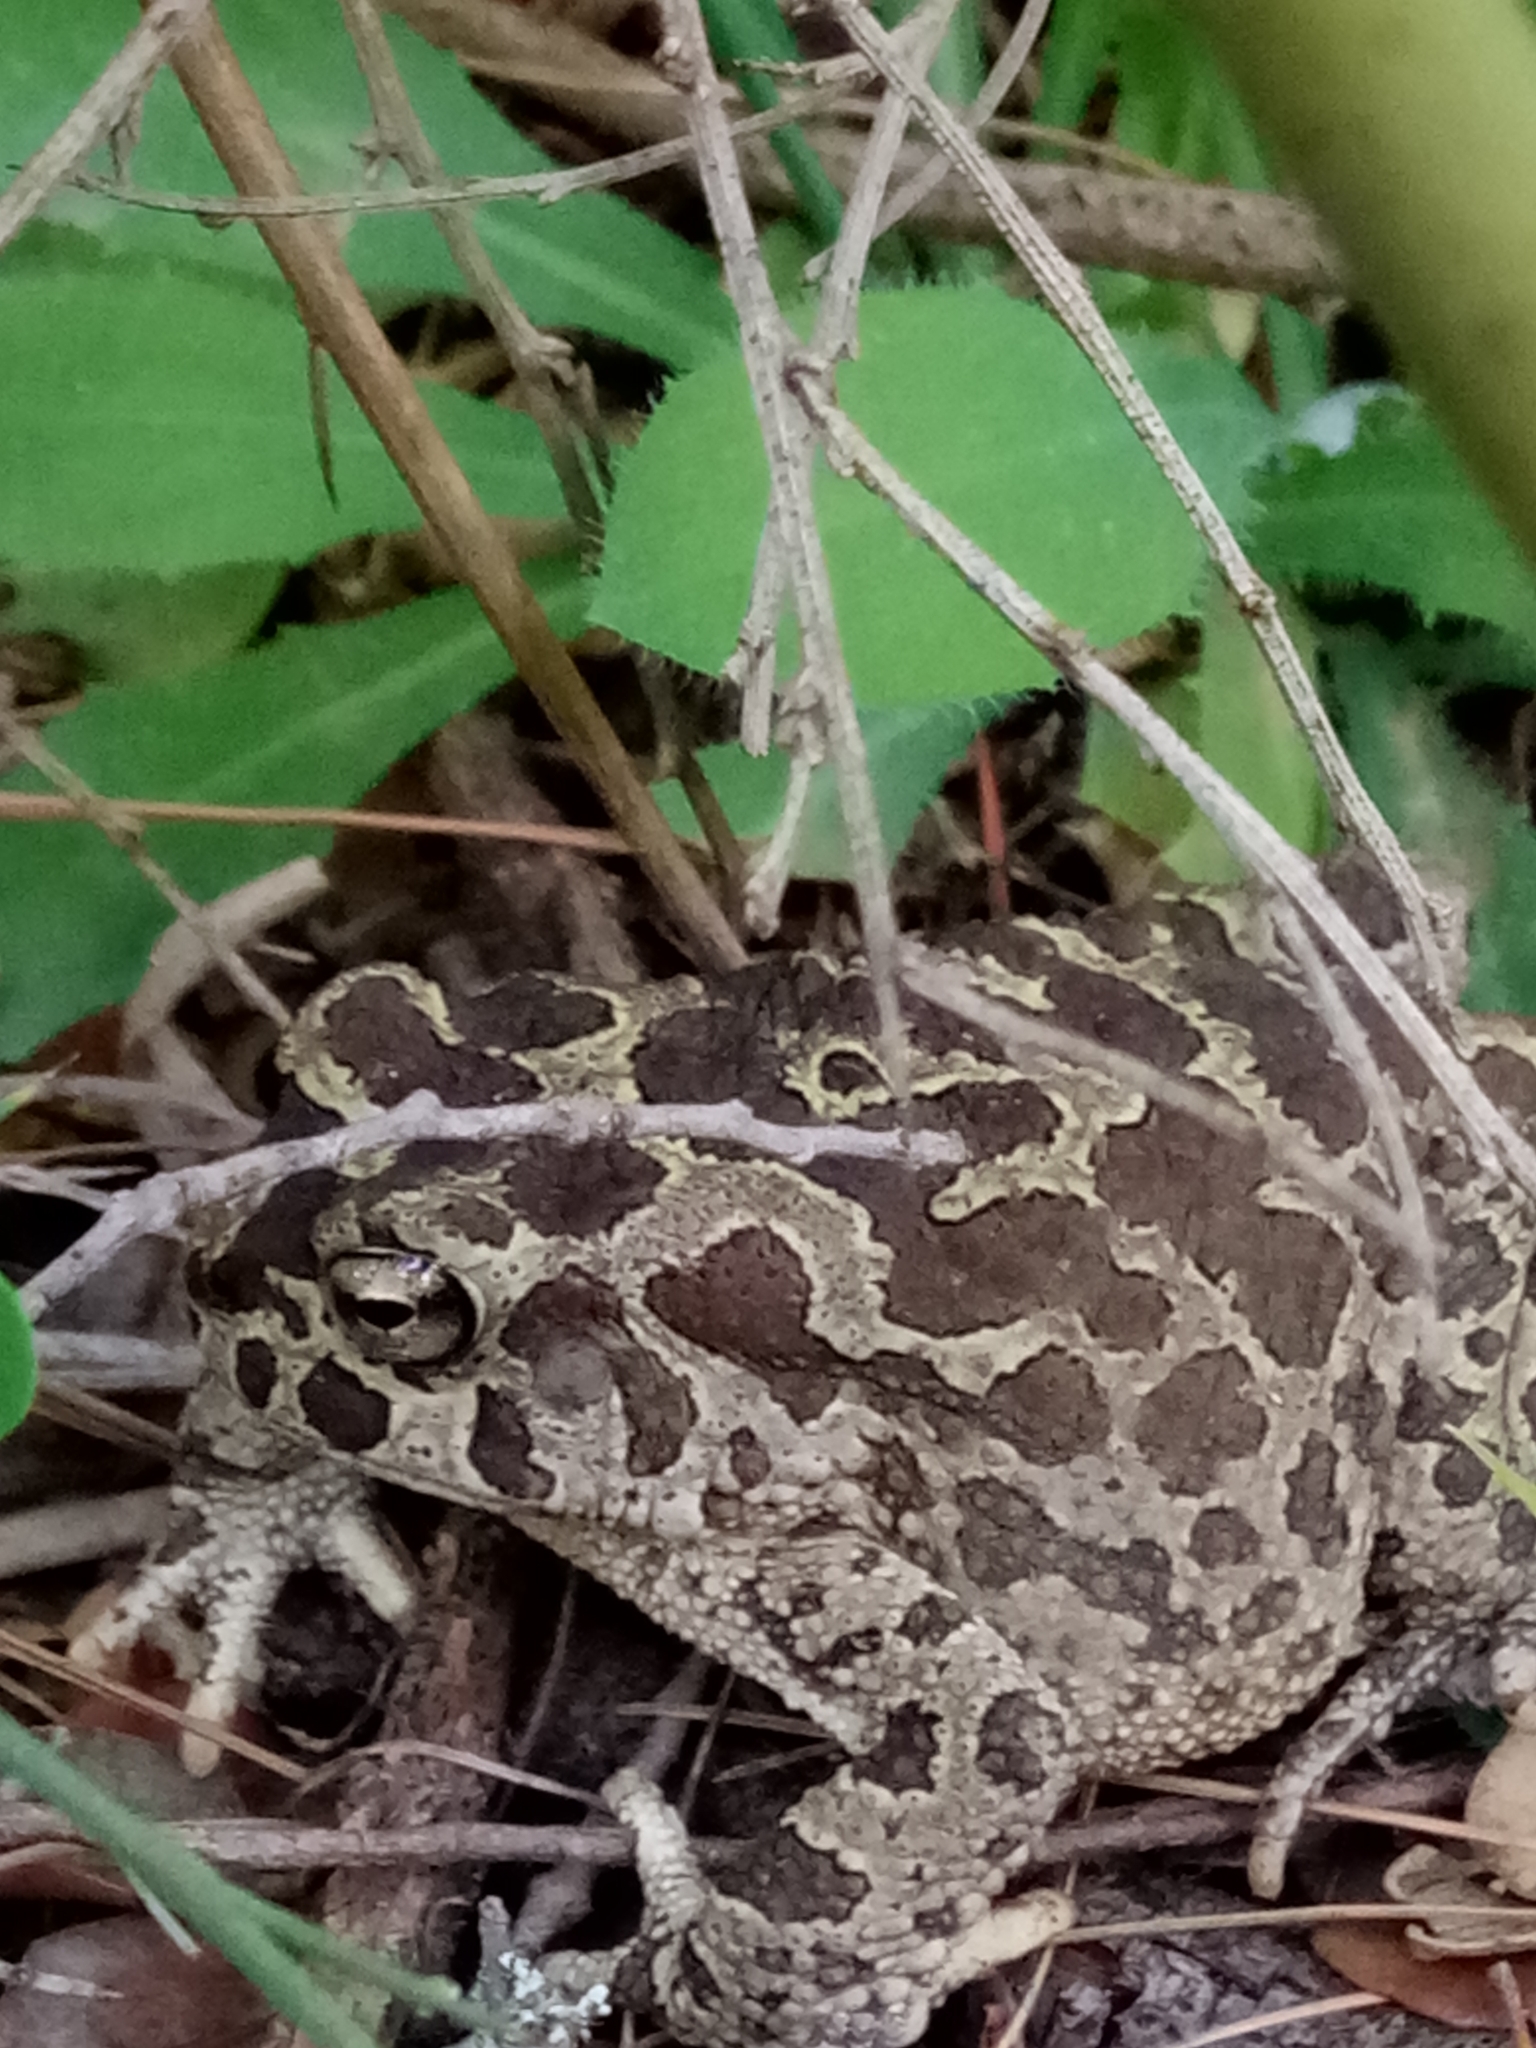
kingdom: Animalia
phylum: Chordata
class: Amphibia
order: Anura
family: Bufonidae
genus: Sclerophrys
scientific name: Sclerophrys mauritanica
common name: Berber toad
